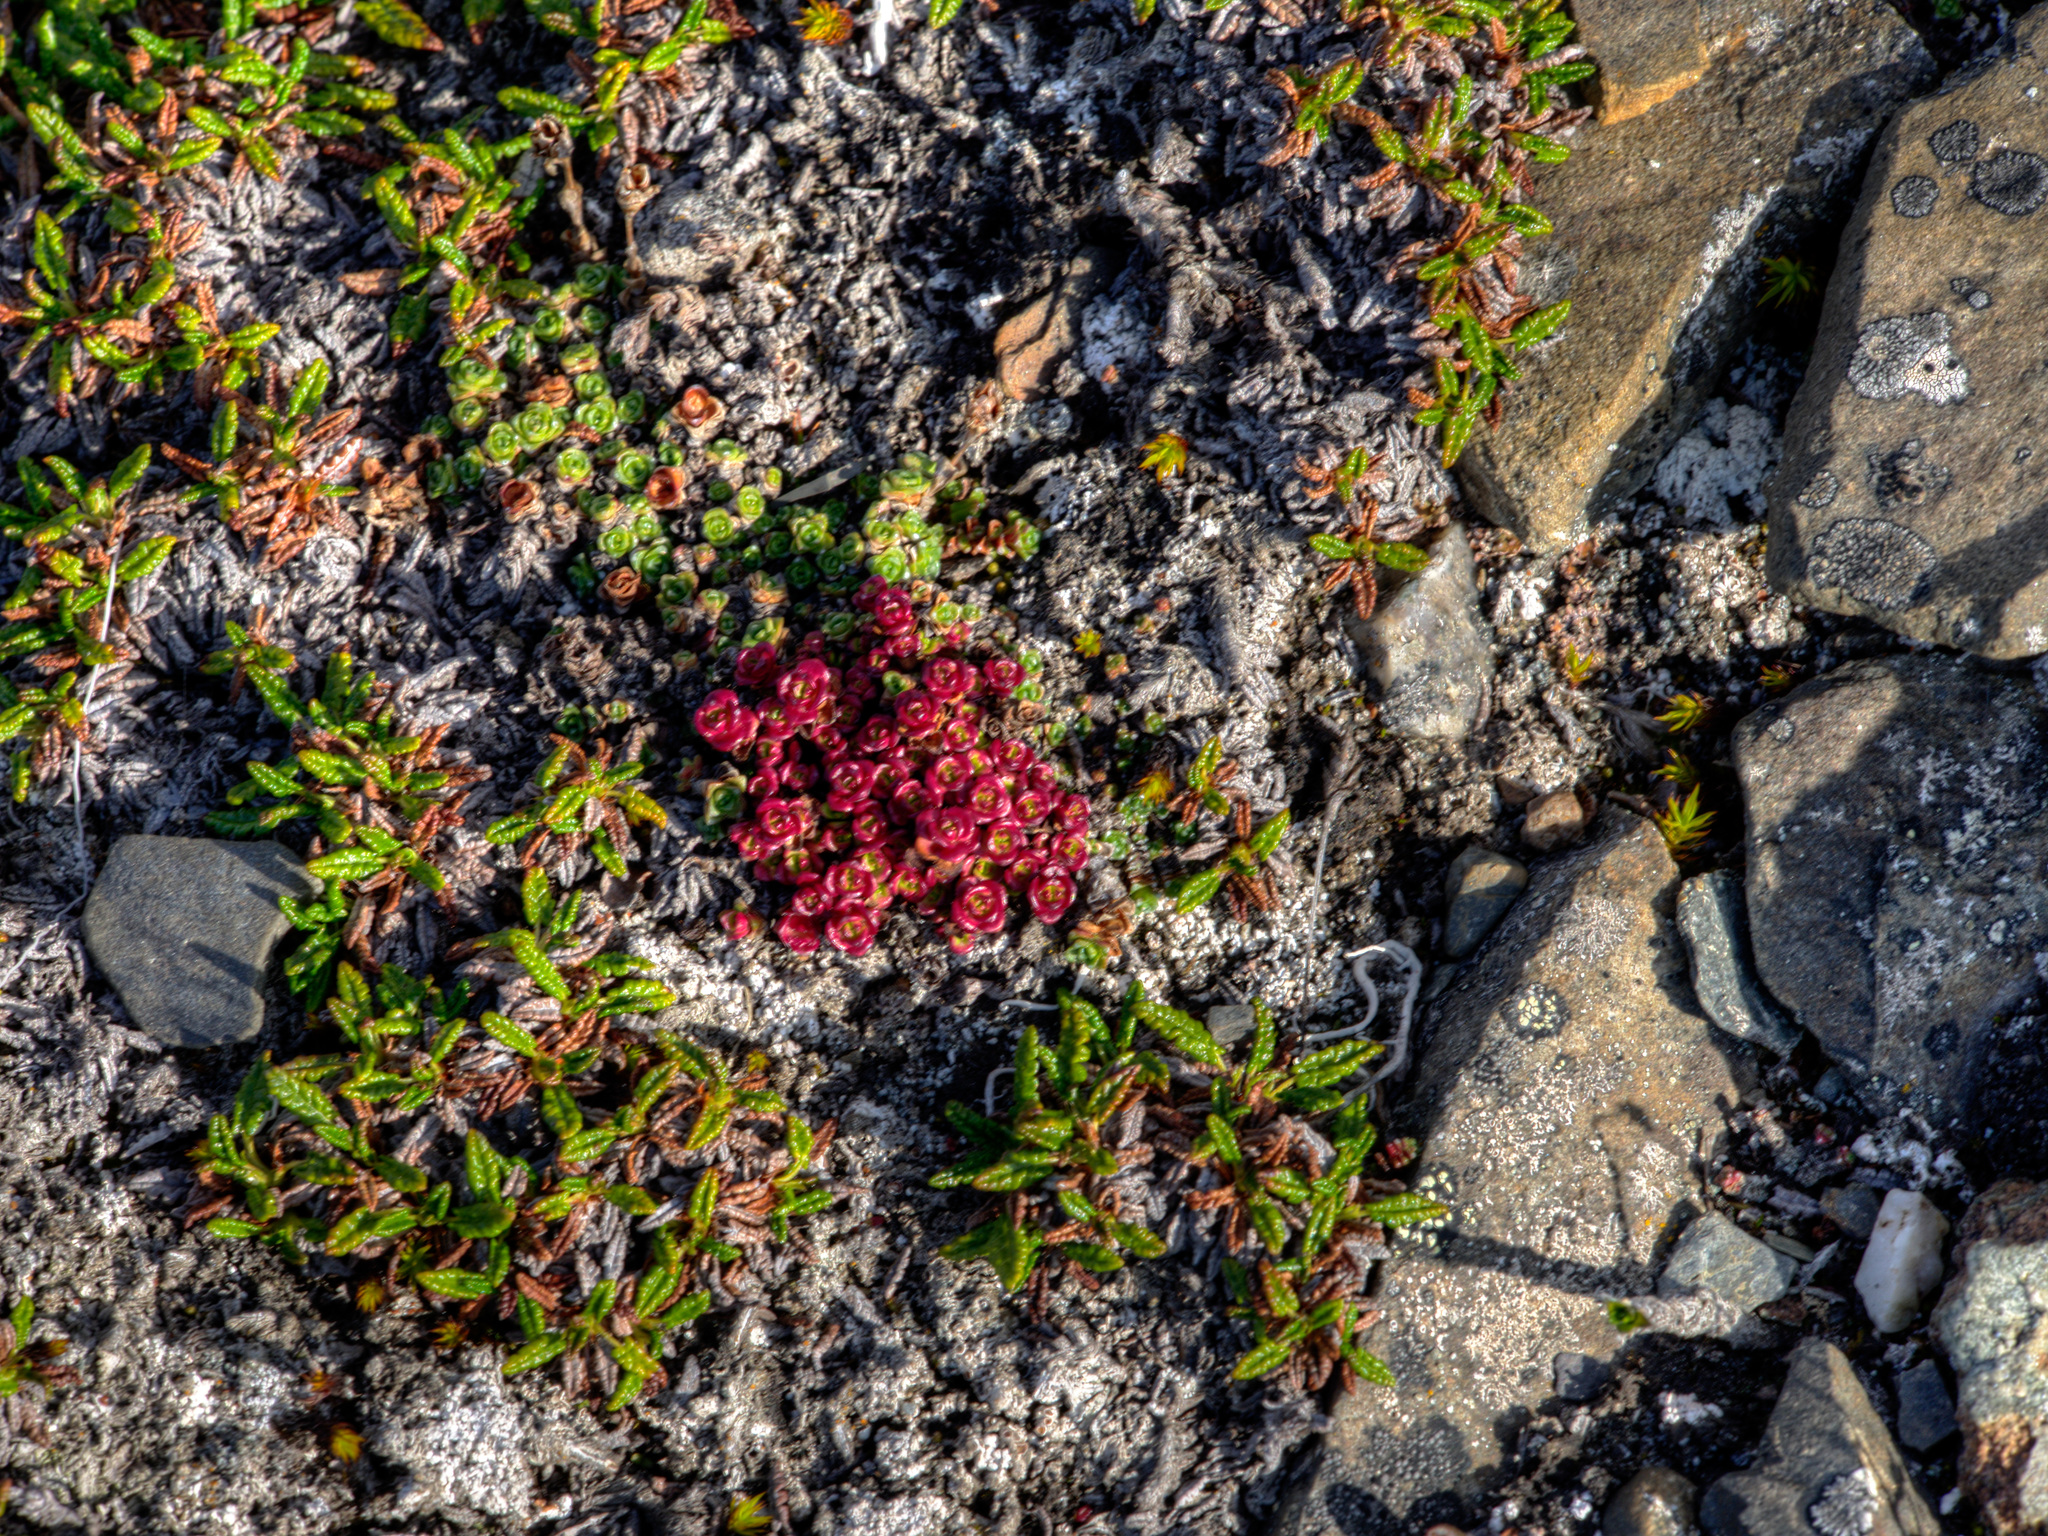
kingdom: Plantae
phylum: Tracheophyta
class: Magnoliopsida
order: Saxifragales
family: Saxifragaceae
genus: Saxifraga
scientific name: Saxifraga oppositifolia
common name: Purple saxifrage
